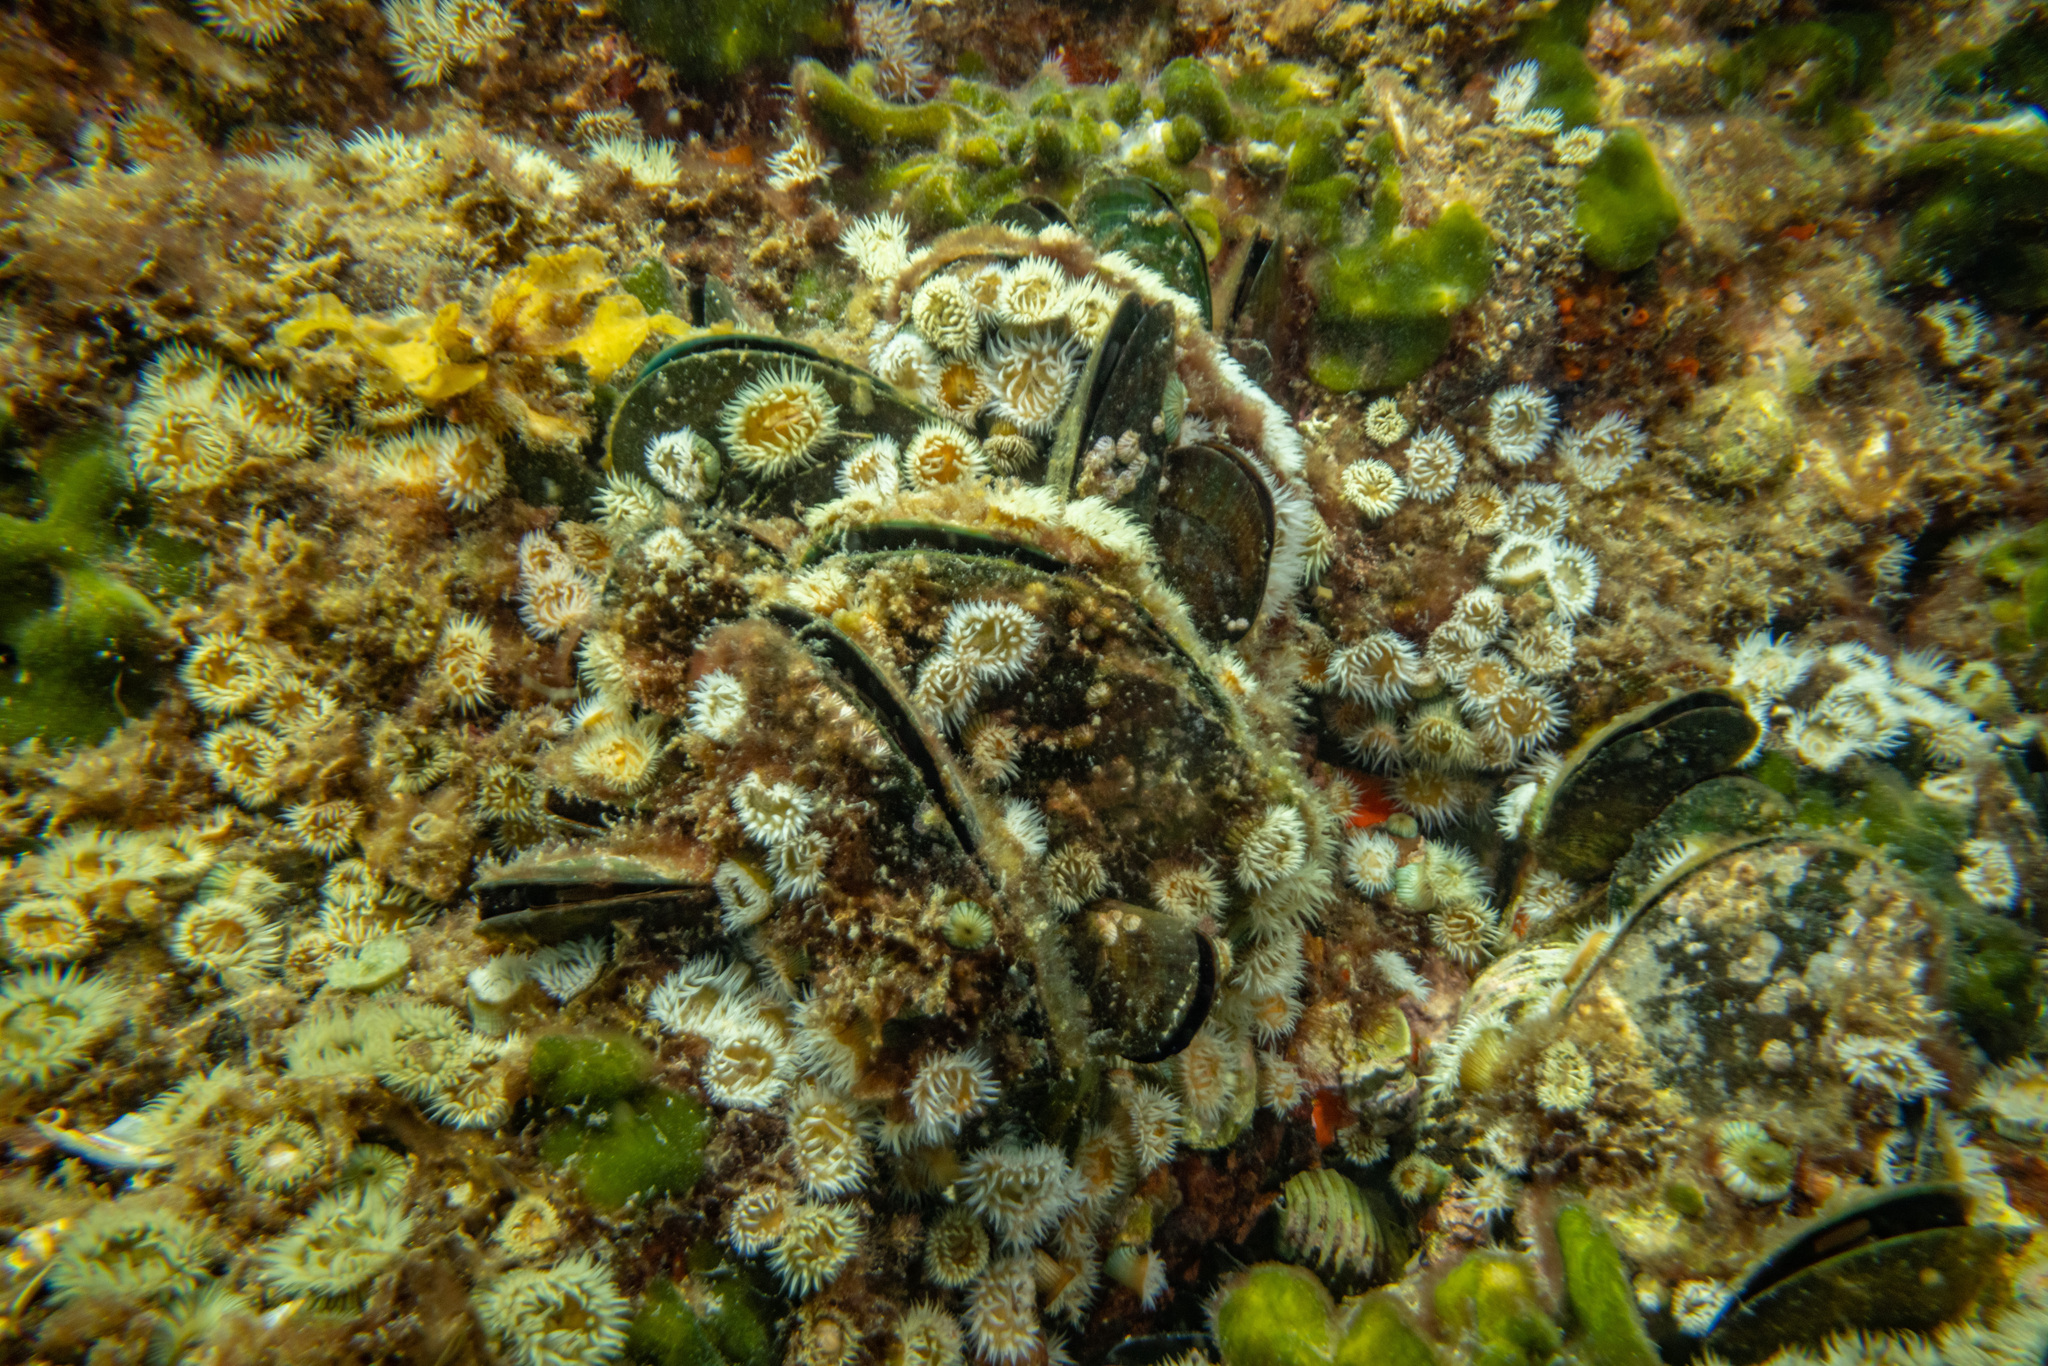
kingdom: Animalia
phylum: Mollusca
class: Bivalvia
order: Mytilida
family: Mytilidae
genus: Perna
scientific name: Perna canaliculus
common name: New zealand greenshelltm
